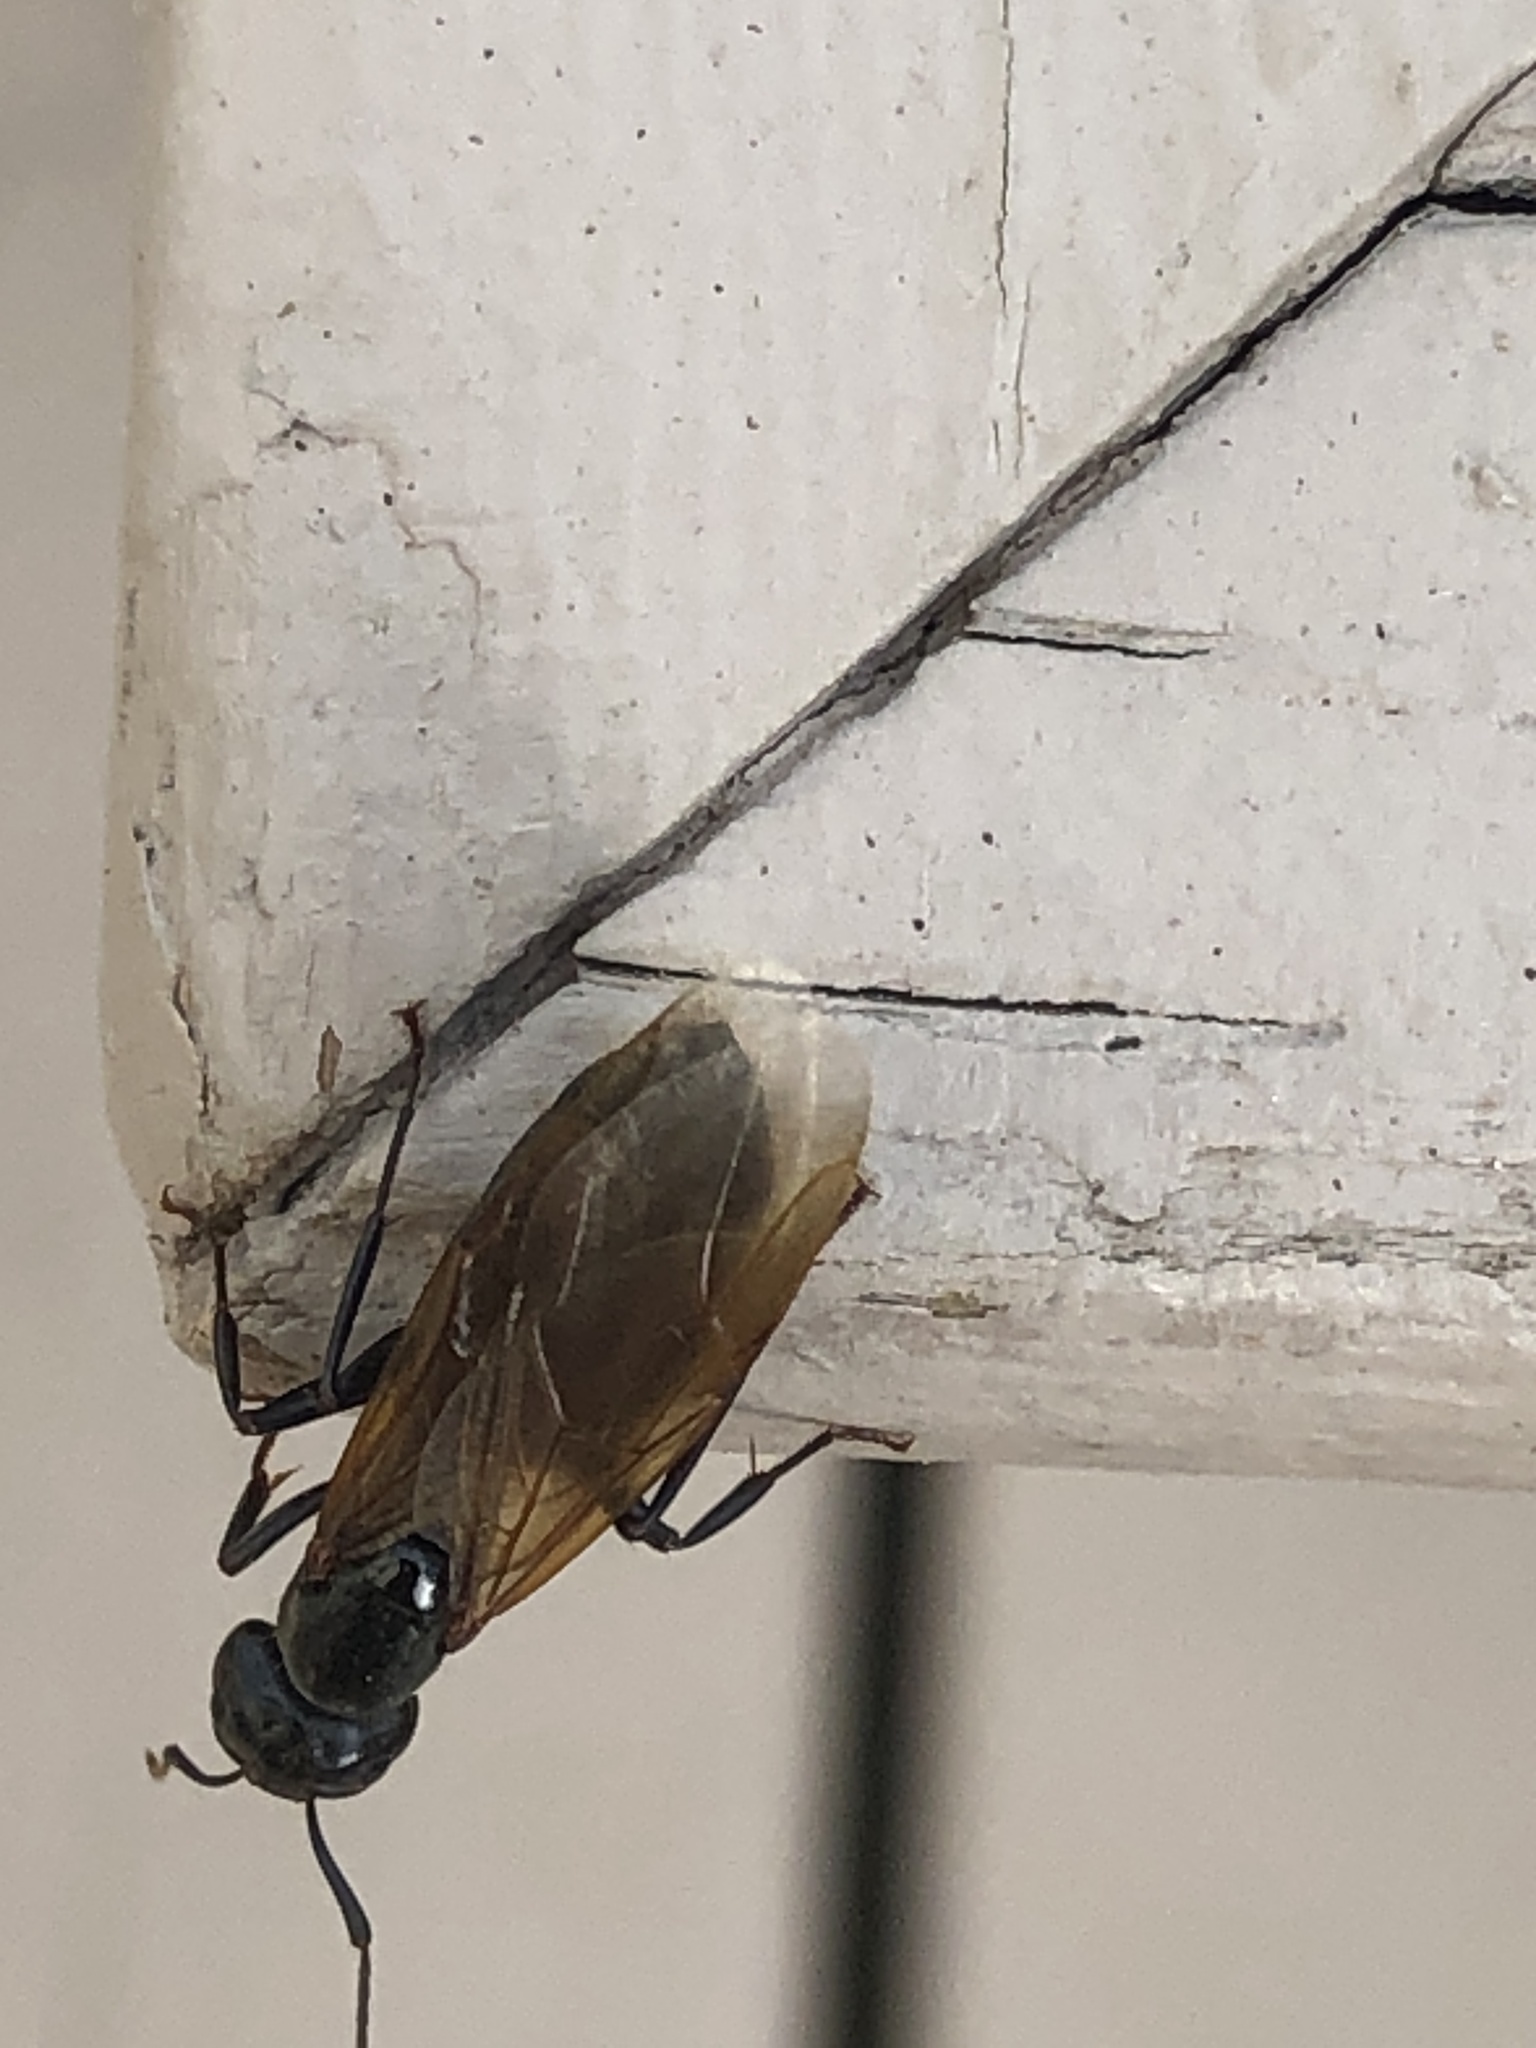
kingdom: Animalia
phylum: Arthropoda
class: Insecta
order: Hymenoptera
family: Formicidae
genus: Camponotus
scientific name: Camponotus pennsylvanicus
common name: Black carpenter ant
